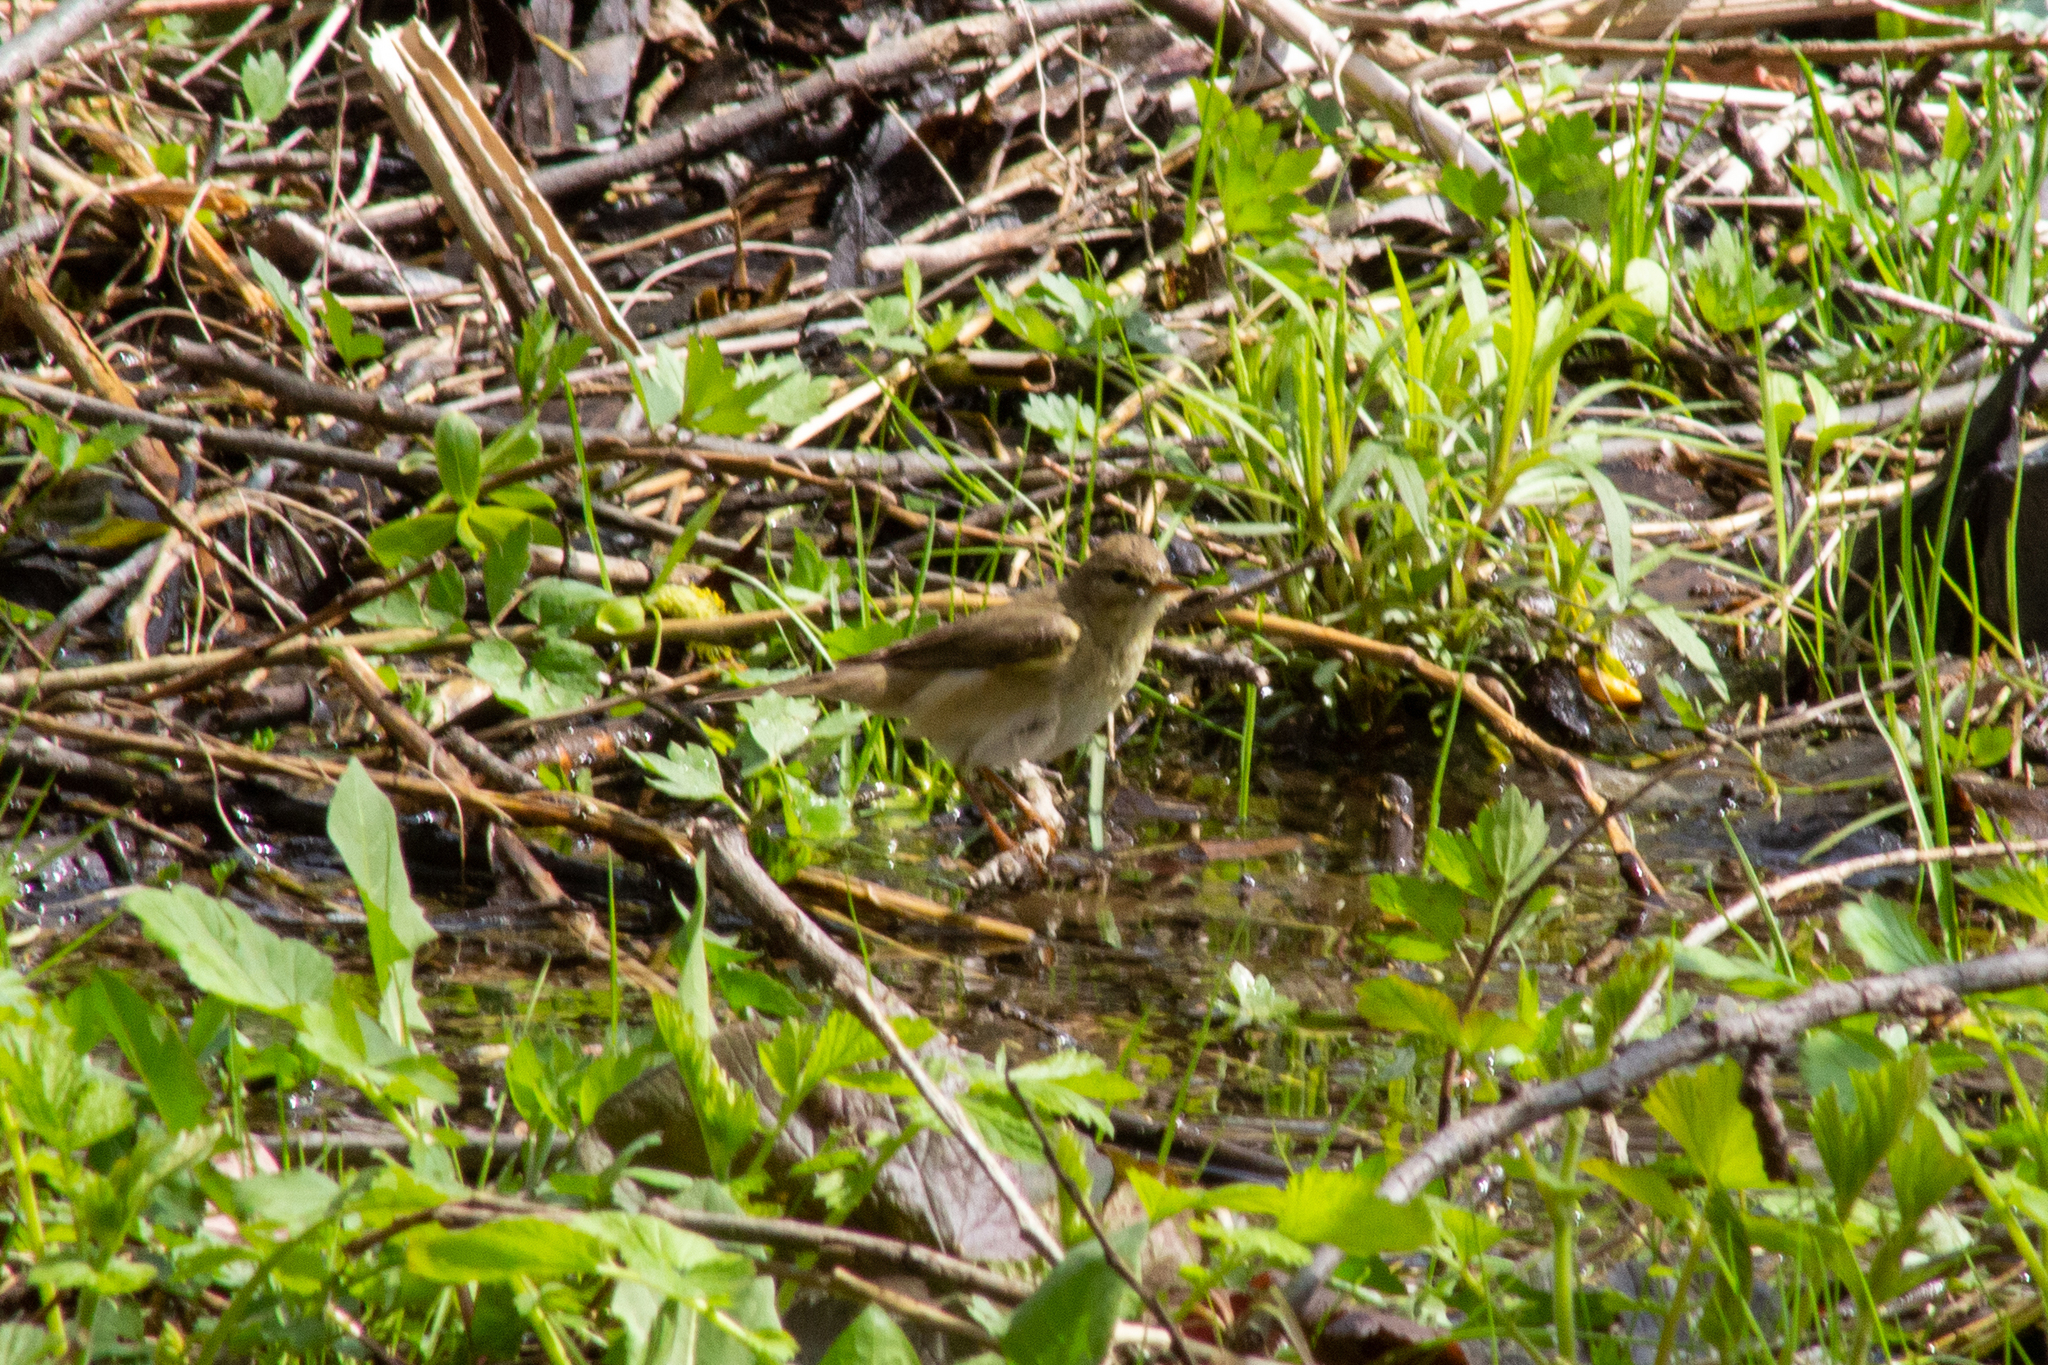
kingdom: Animalia
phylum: Chordata
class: Aves
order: Passeriformes
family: Phylloscopidae
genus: Phylloscopus
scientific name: Phylloscopus trochilus
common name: Willow warbler
